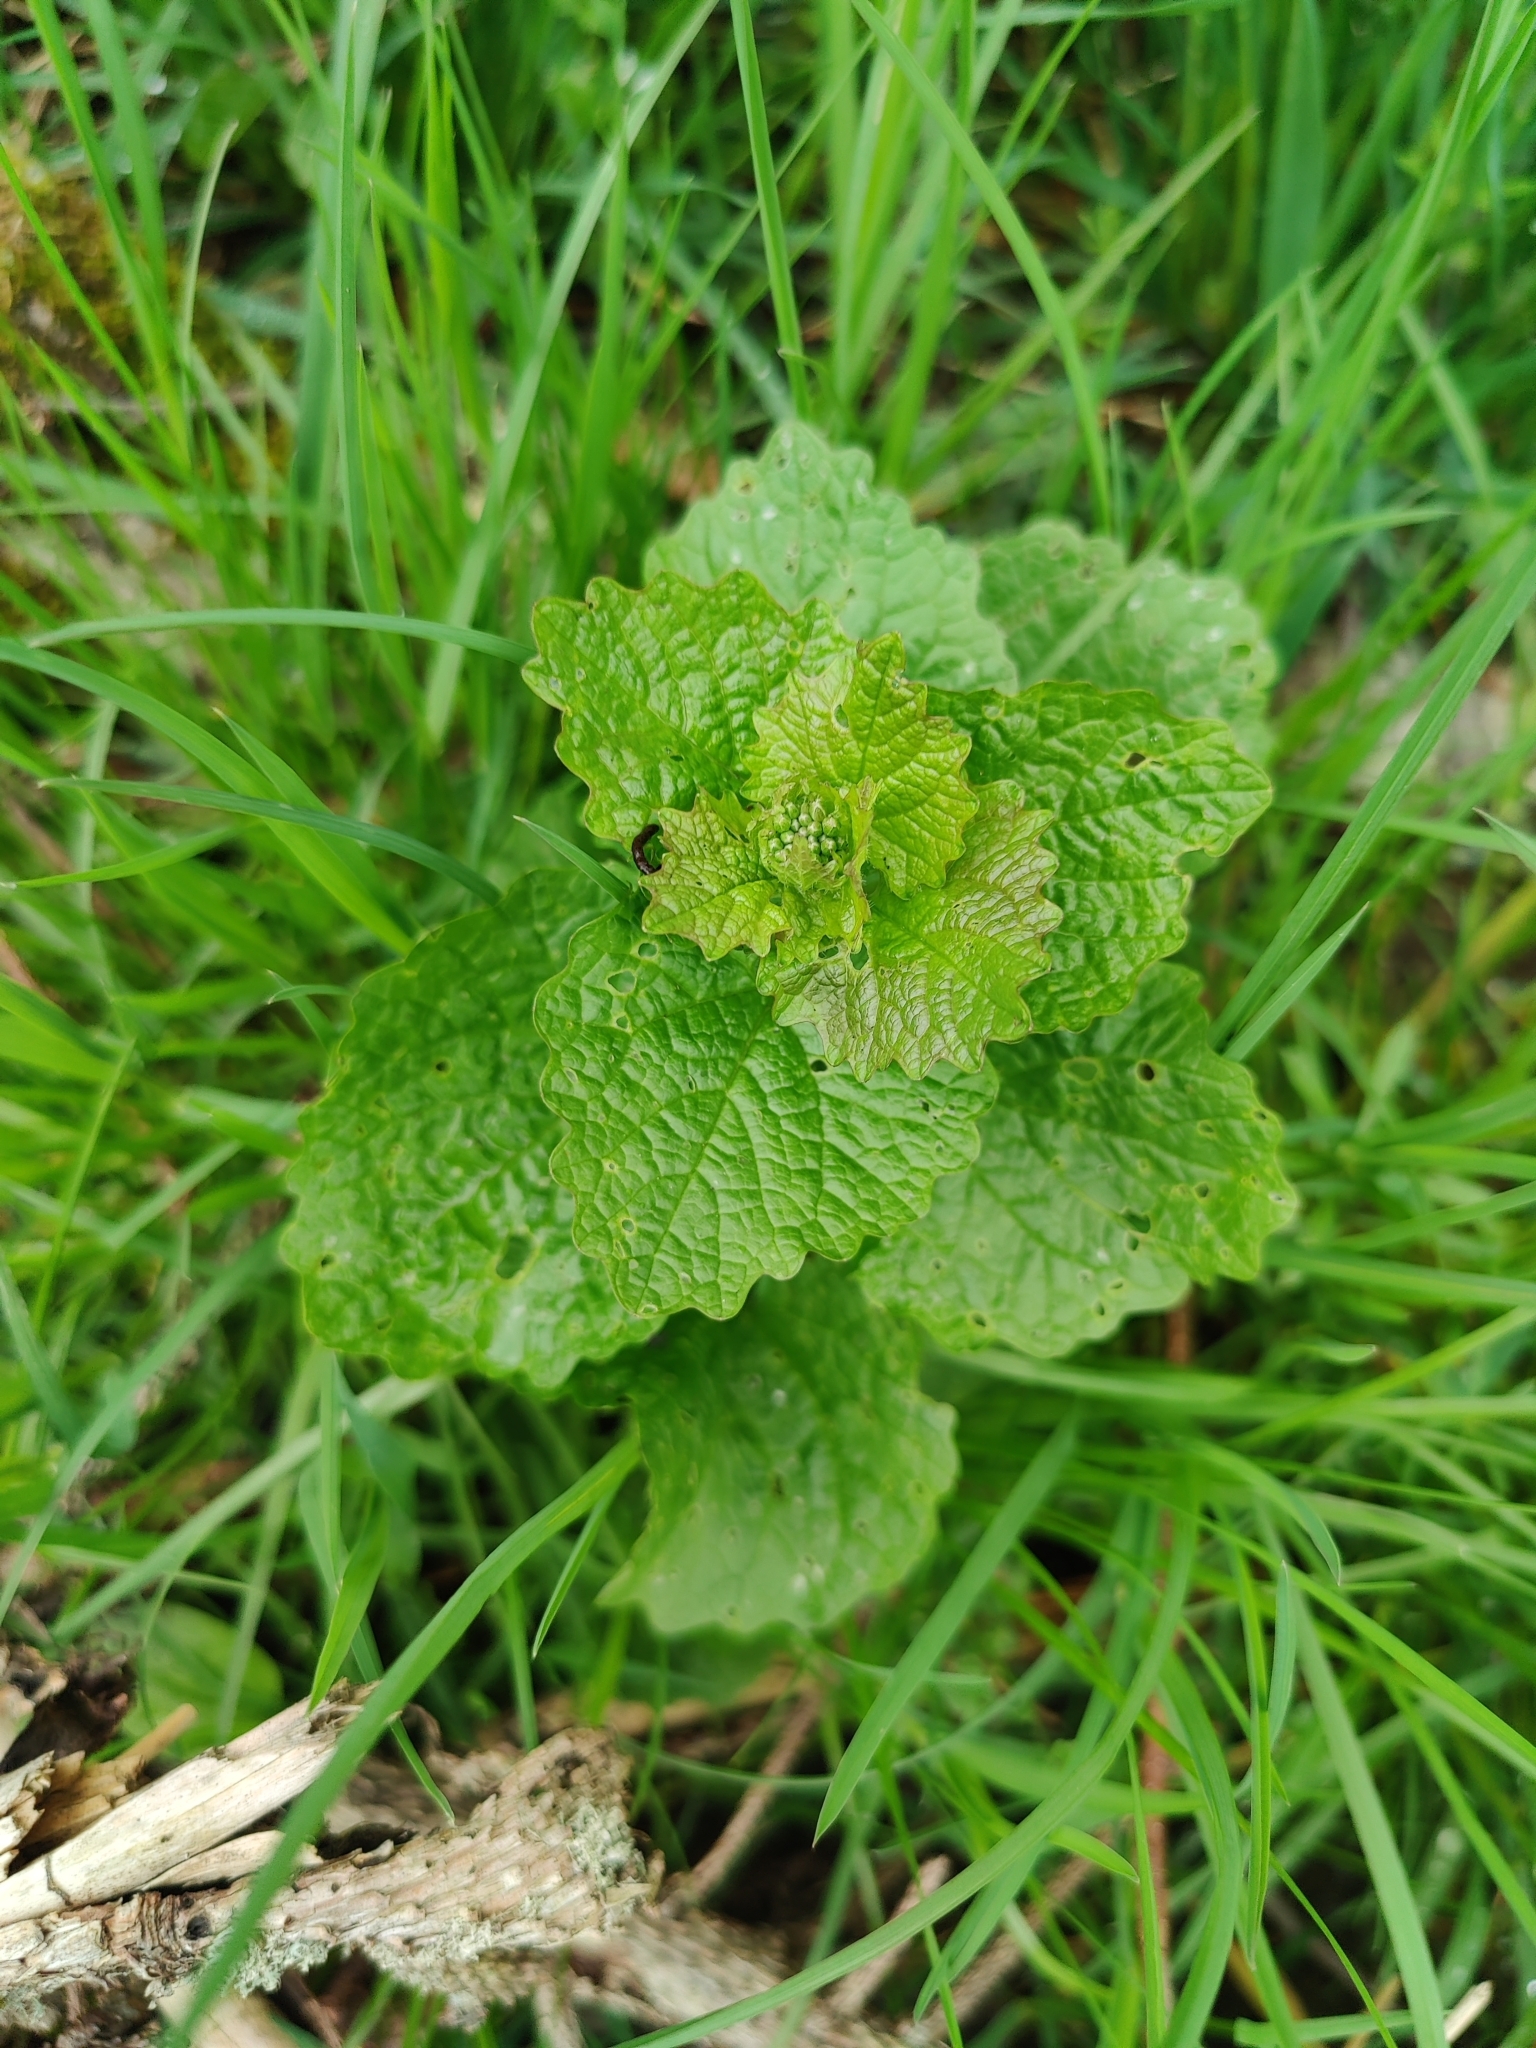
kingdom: Plantae
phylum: Tracheophyta
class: Magnoliopsida
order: Brassicales
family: Brassicaceae
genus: Alliaria
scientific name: Alliaria petiolata
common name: Garlic mustard
